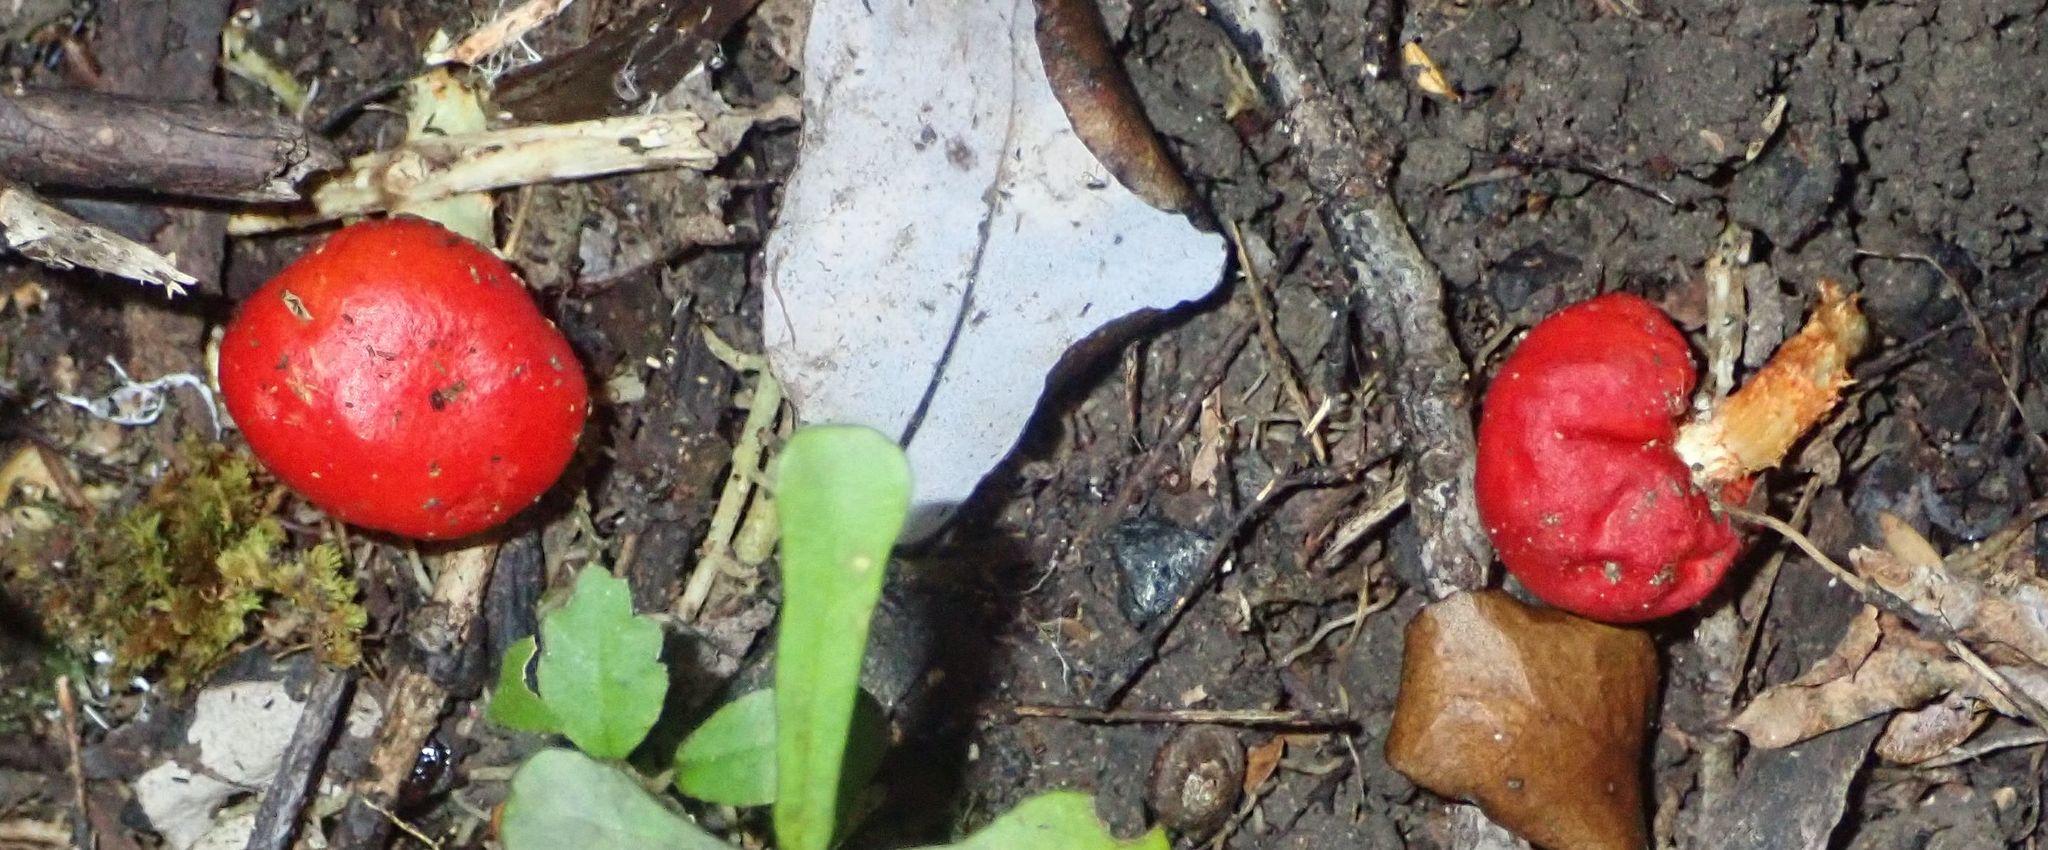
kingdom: Fungi
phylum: Basidiomycota
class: Agaricomycetes
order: Agaricales
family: Strophariaceae
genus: Leratiomyces
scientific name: Leratiomyces erythrocephalus
